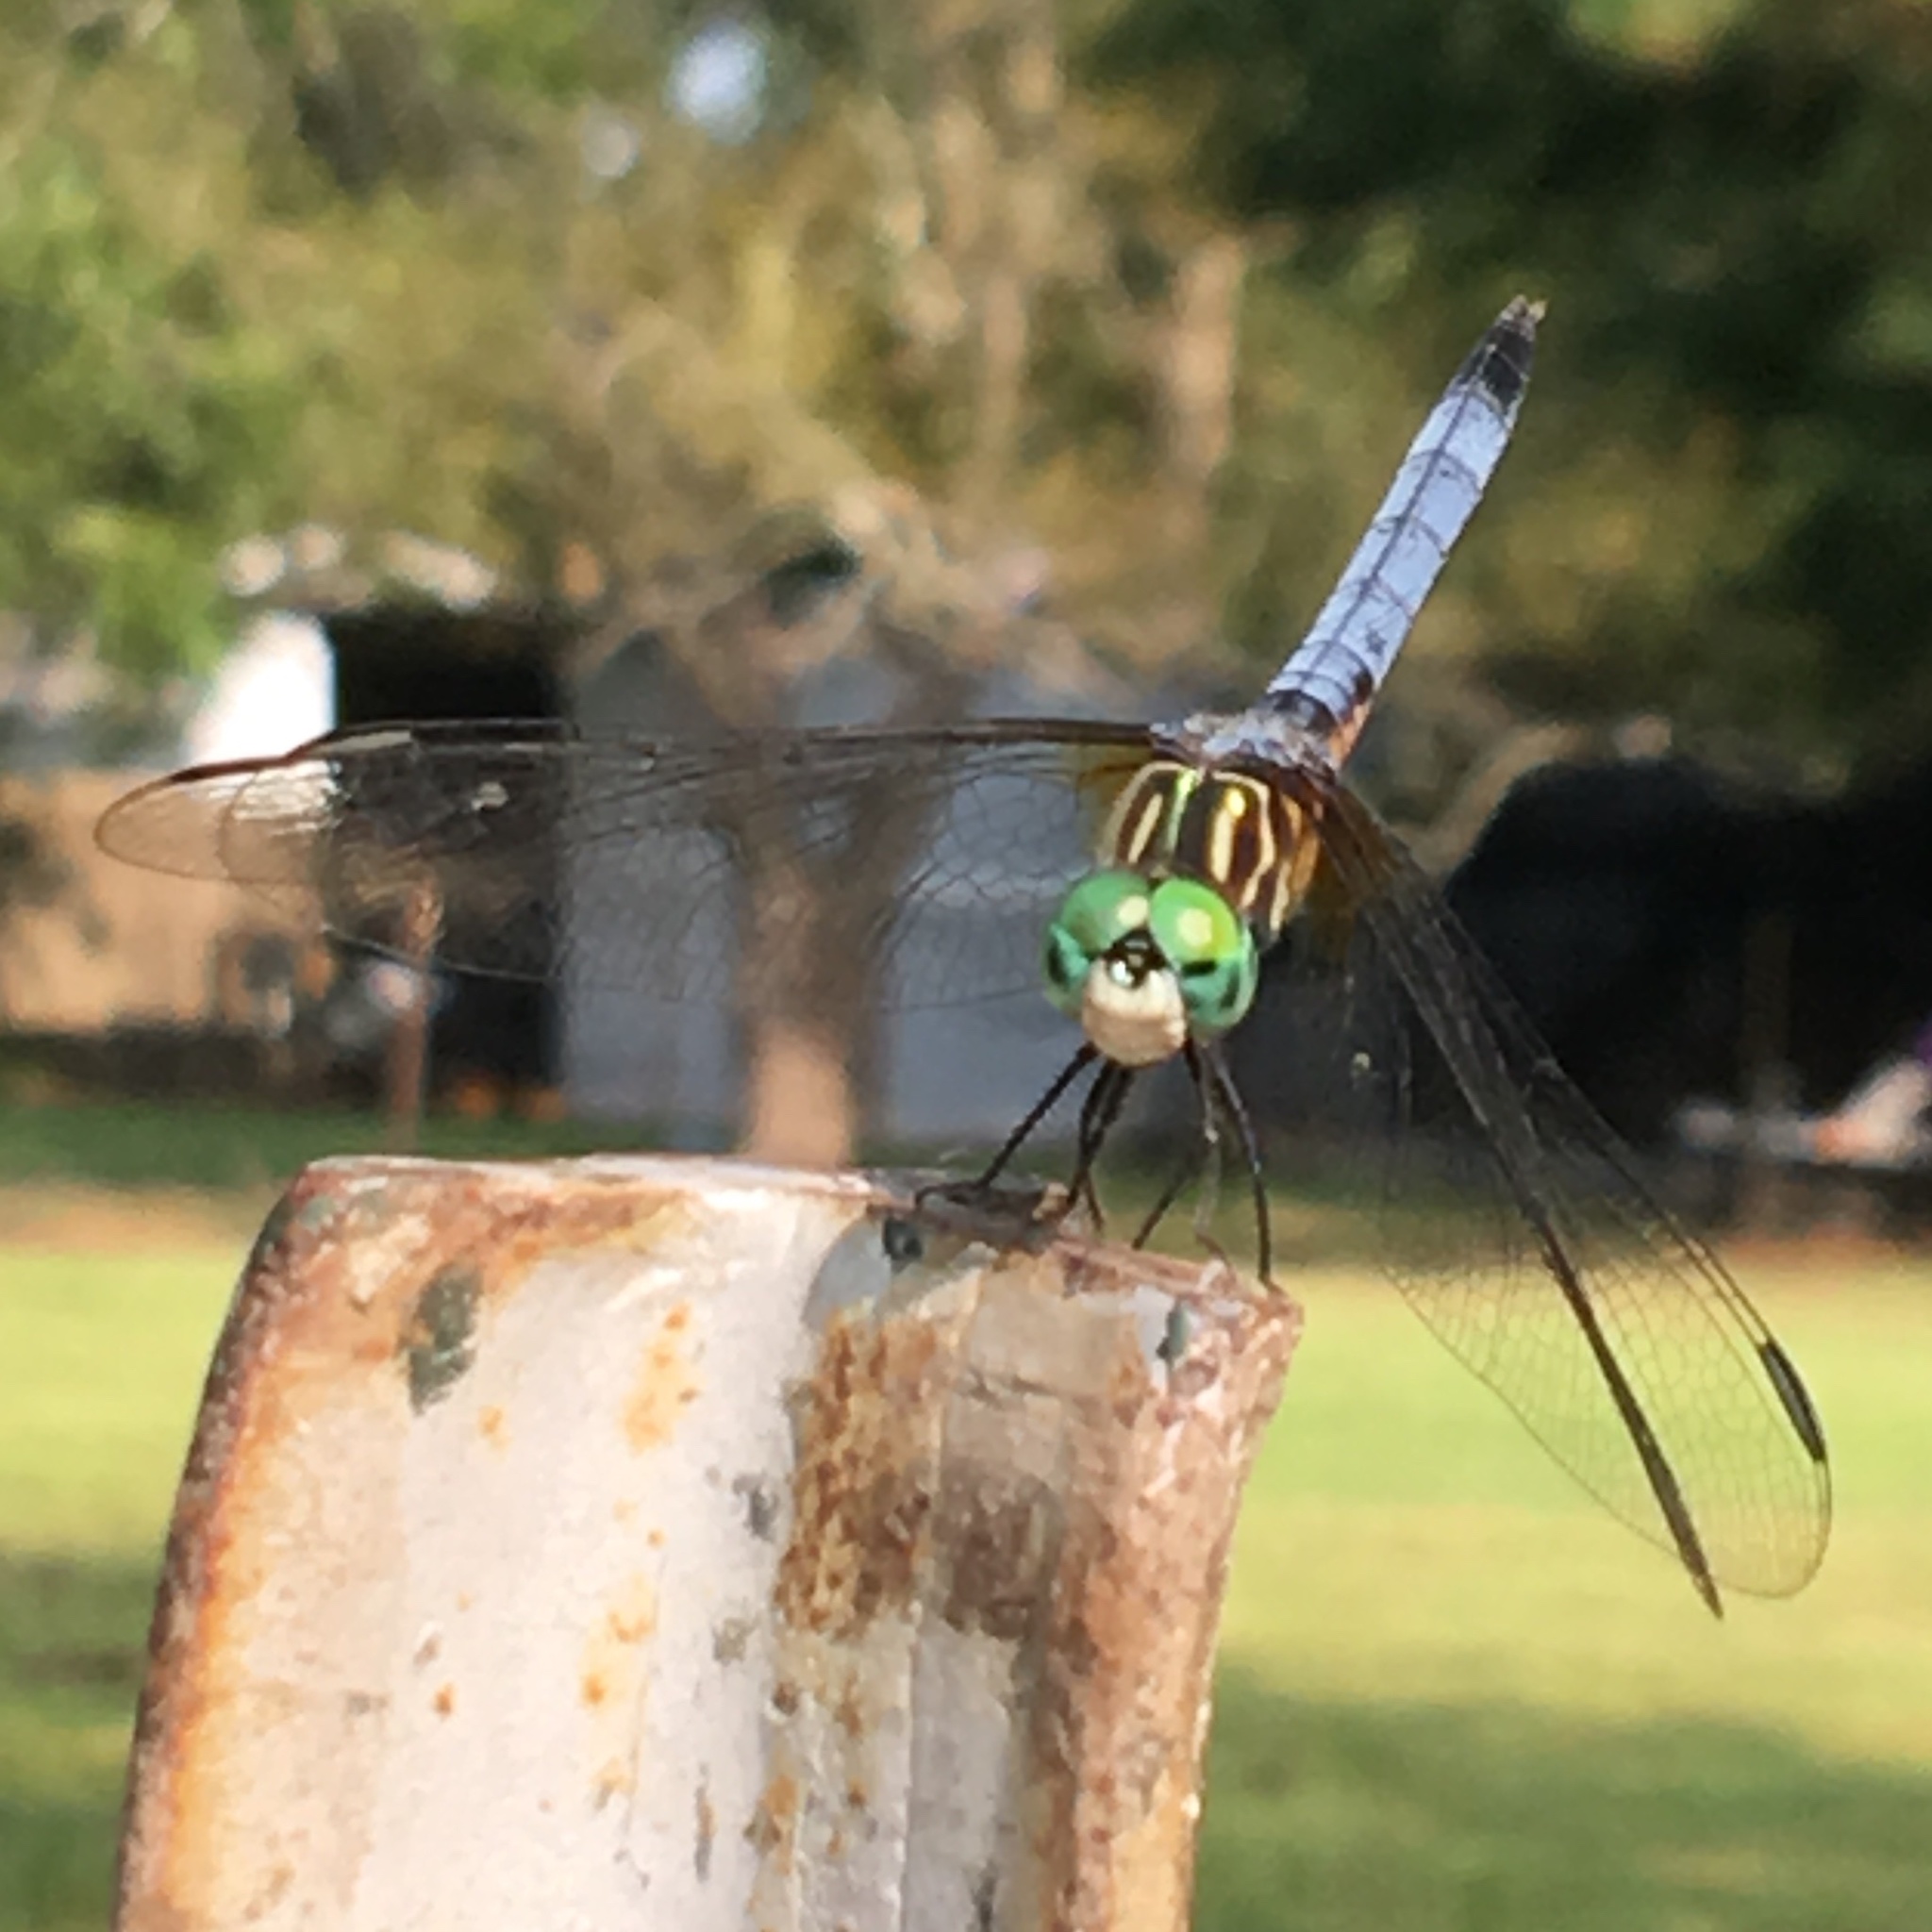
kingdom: Animalia
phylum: Arthropoda
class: Insecta
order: Odonata
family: Libellulidae
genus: Pachydiplax
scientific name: Pachydiplax longipennis
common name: Blue dasher
